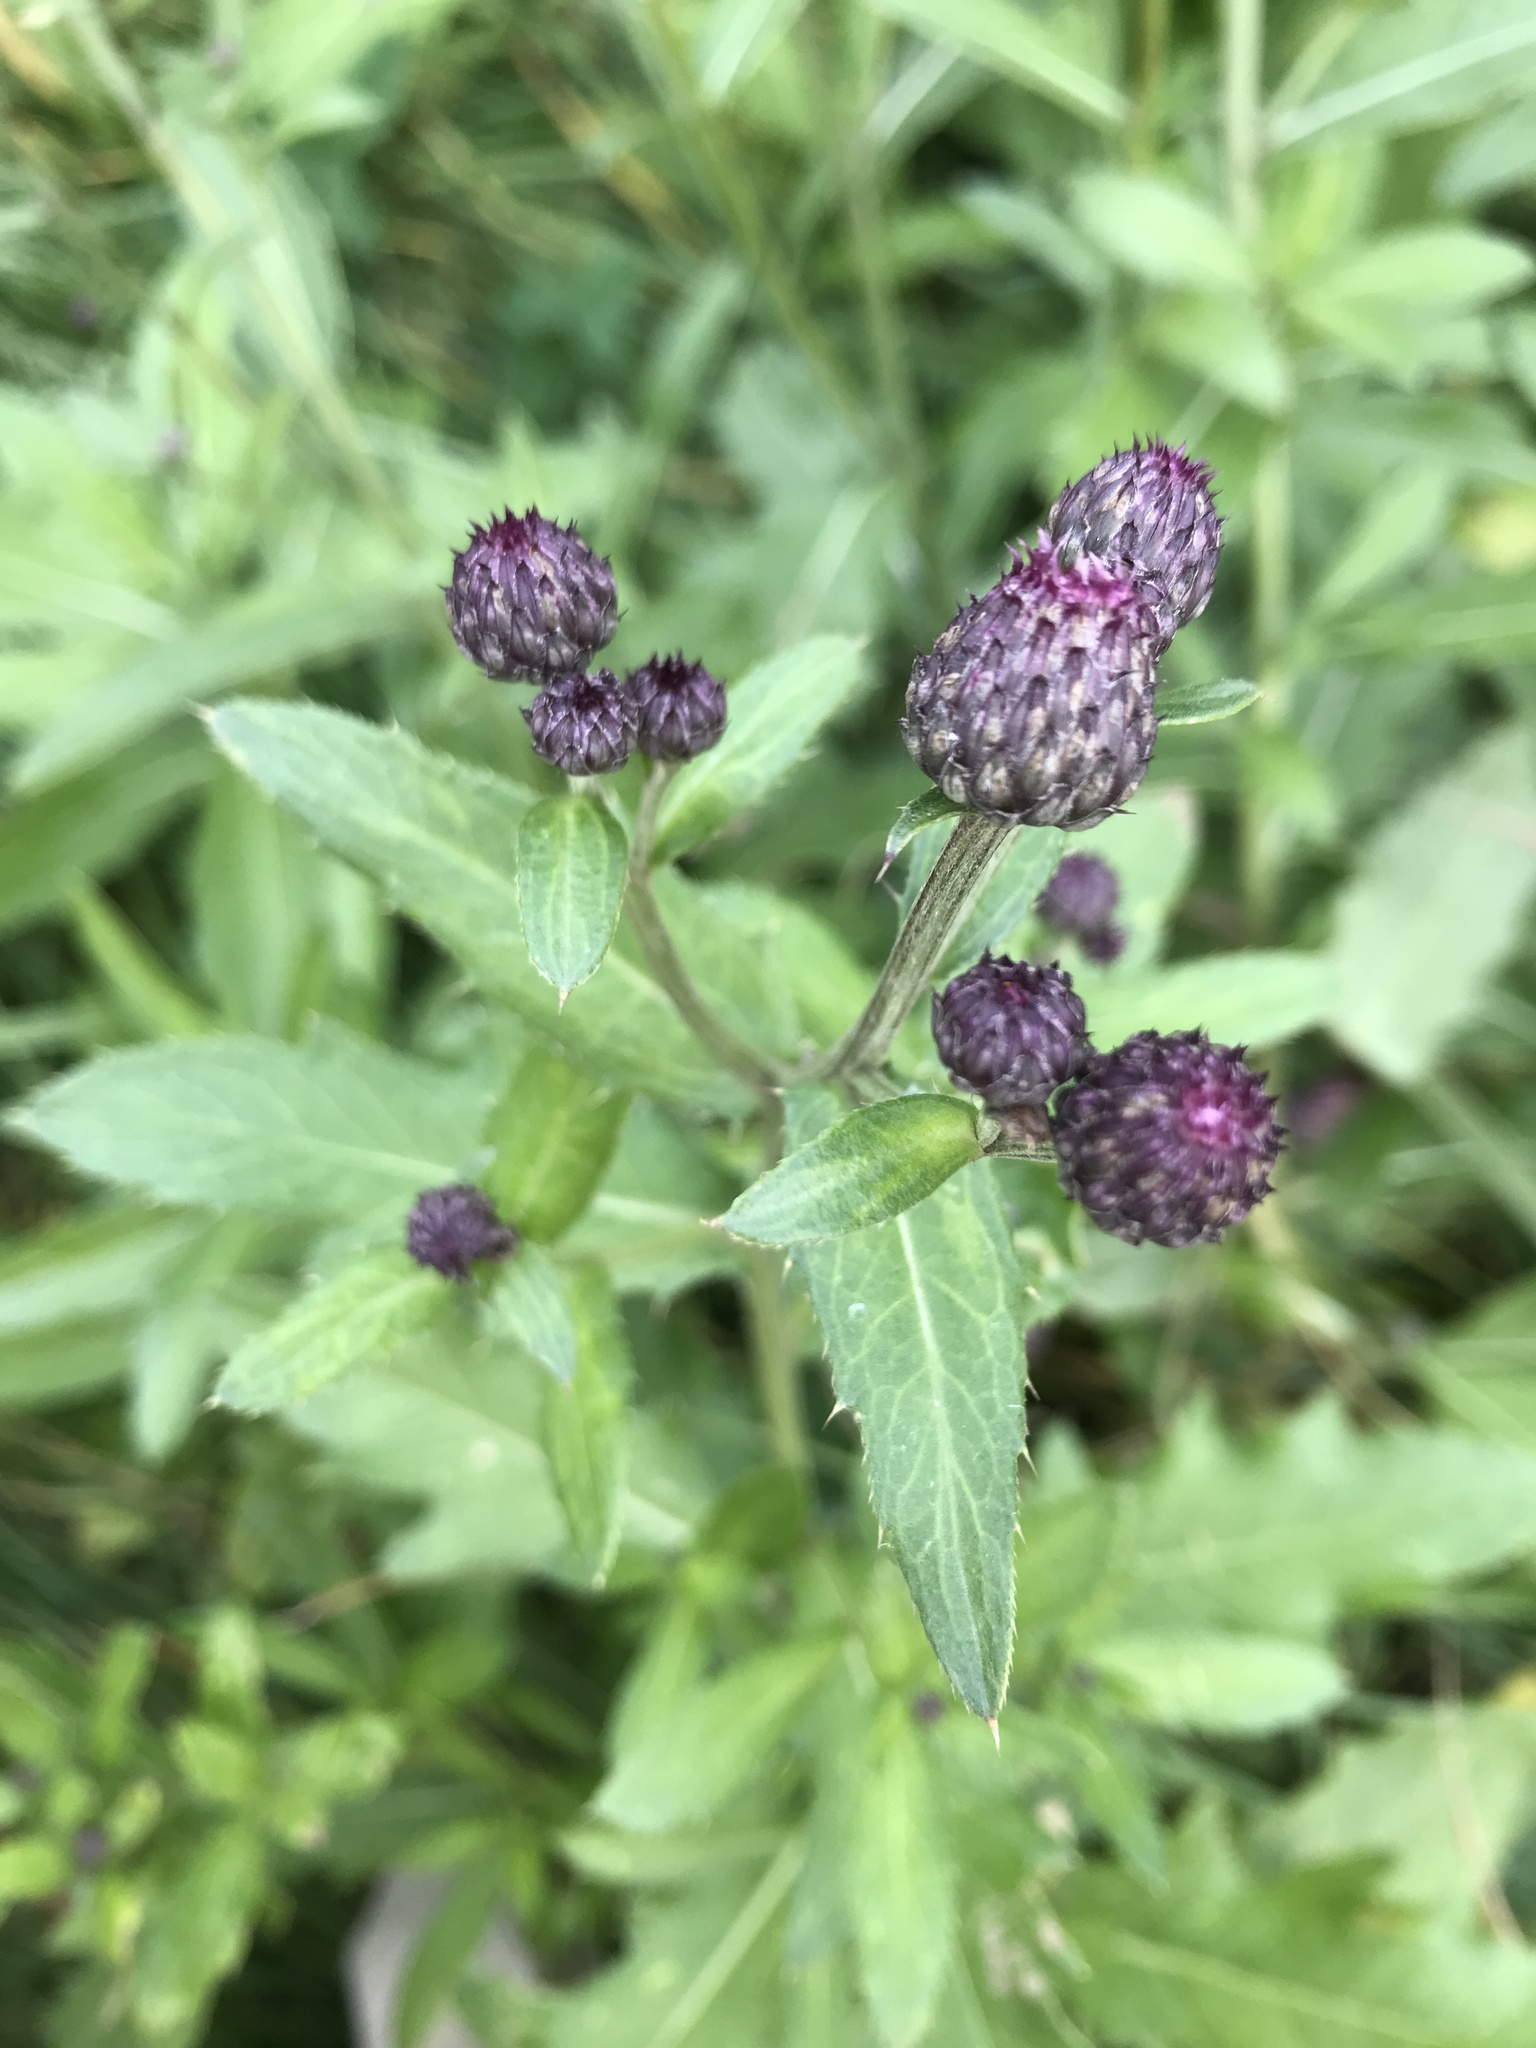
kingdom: Plantae
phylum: Tracheophyta
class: Magnoliopsida
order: Asterales
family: Asteraceae
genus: Cirsium
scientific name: Cirsium arvense
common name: Creeping thistle
